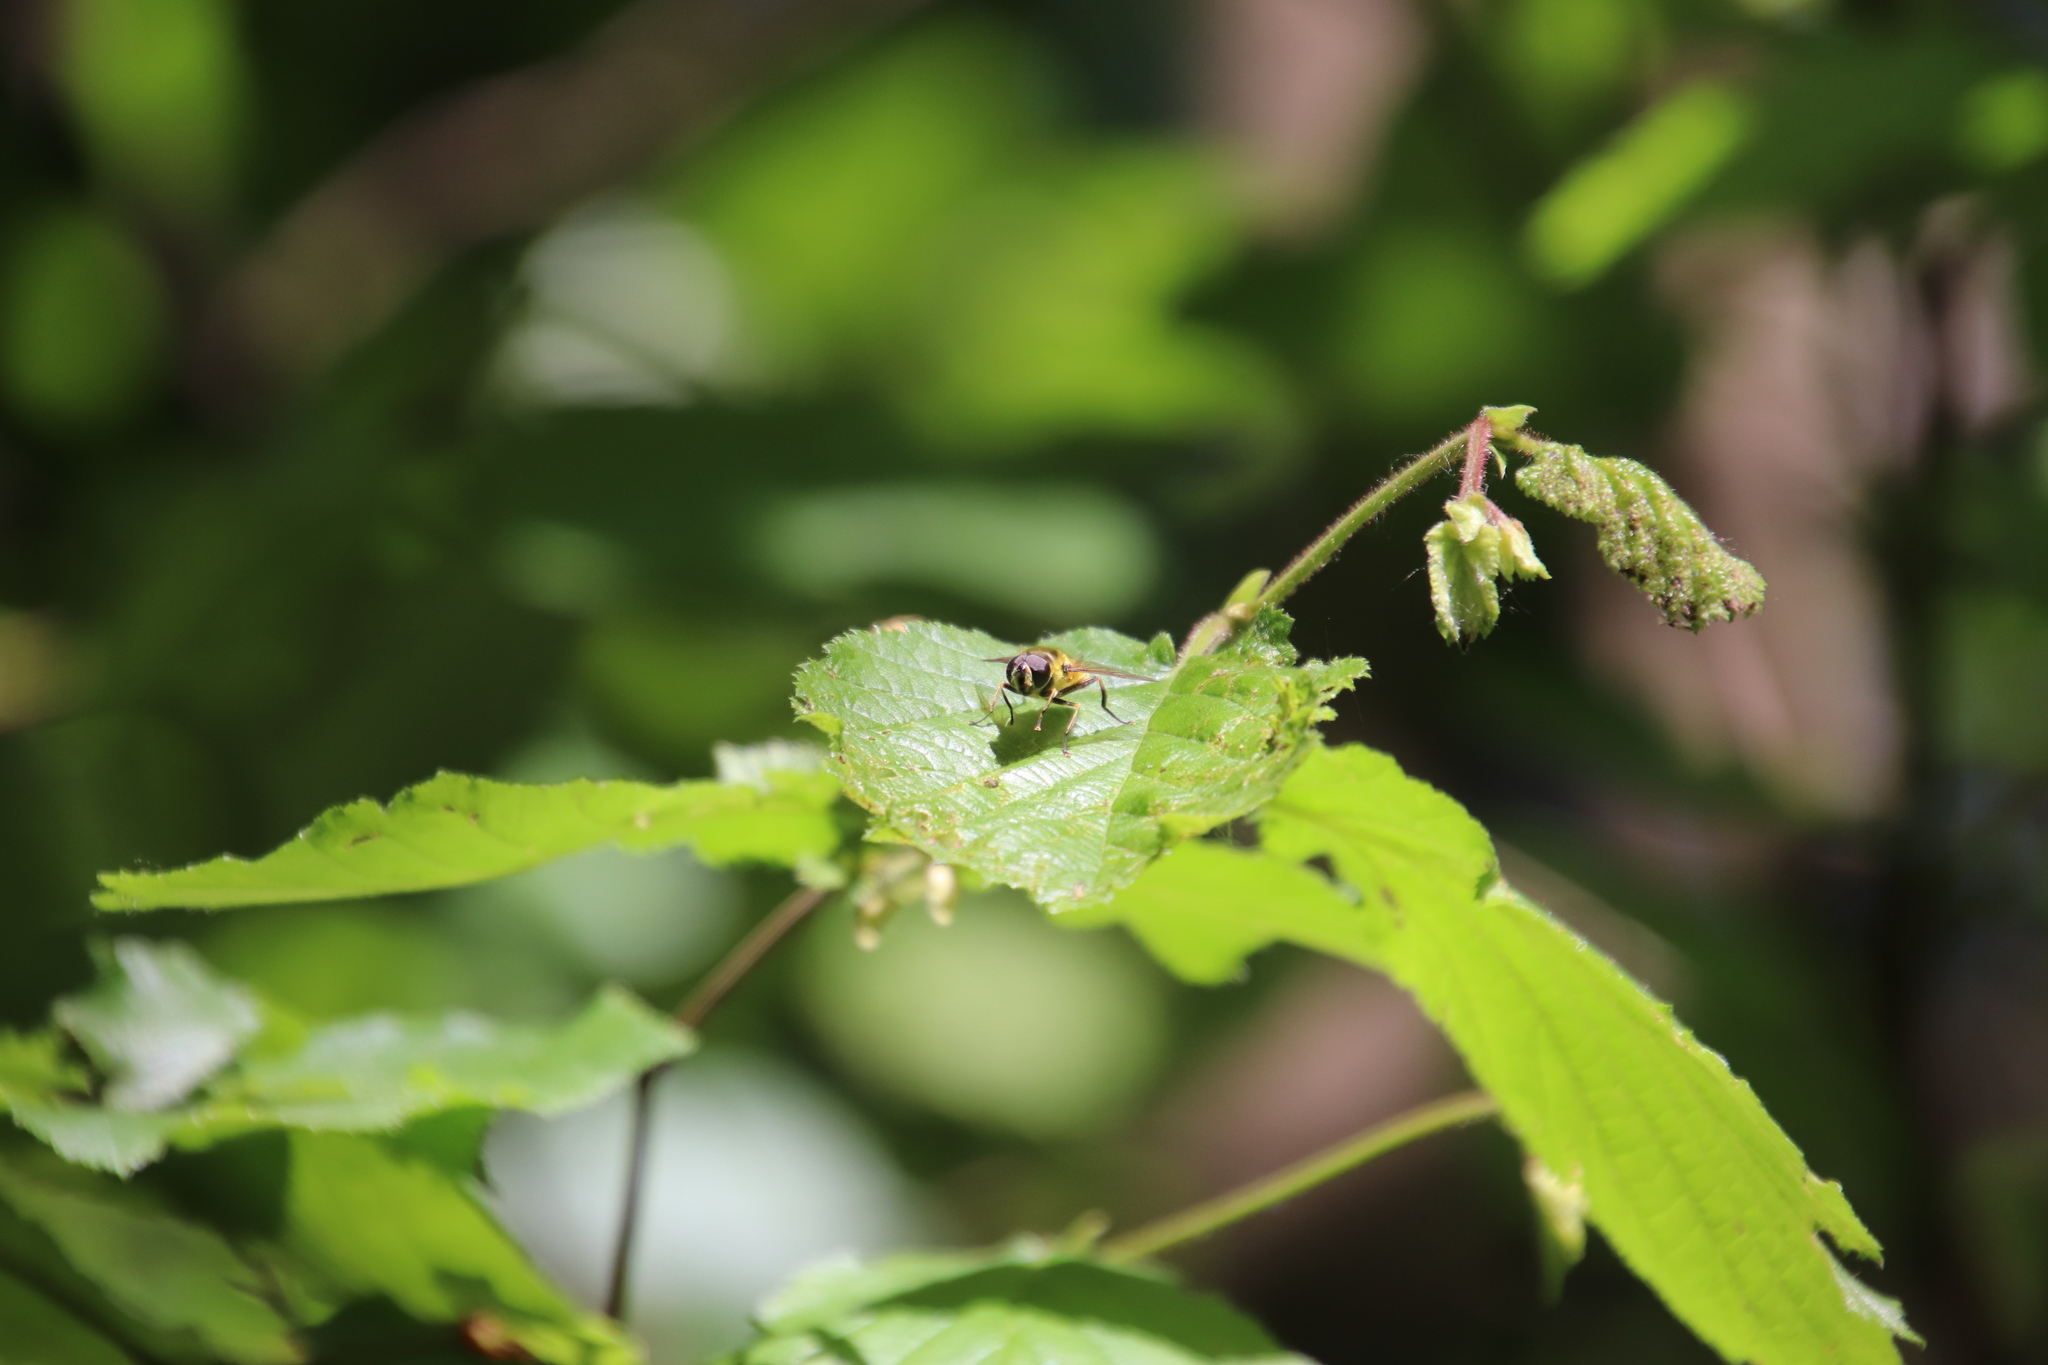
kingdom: Animalia
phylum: Arthropoda
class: Insecta
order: Diptera
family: Syrphidae
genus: Myathropa
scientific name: Myathropa florea
